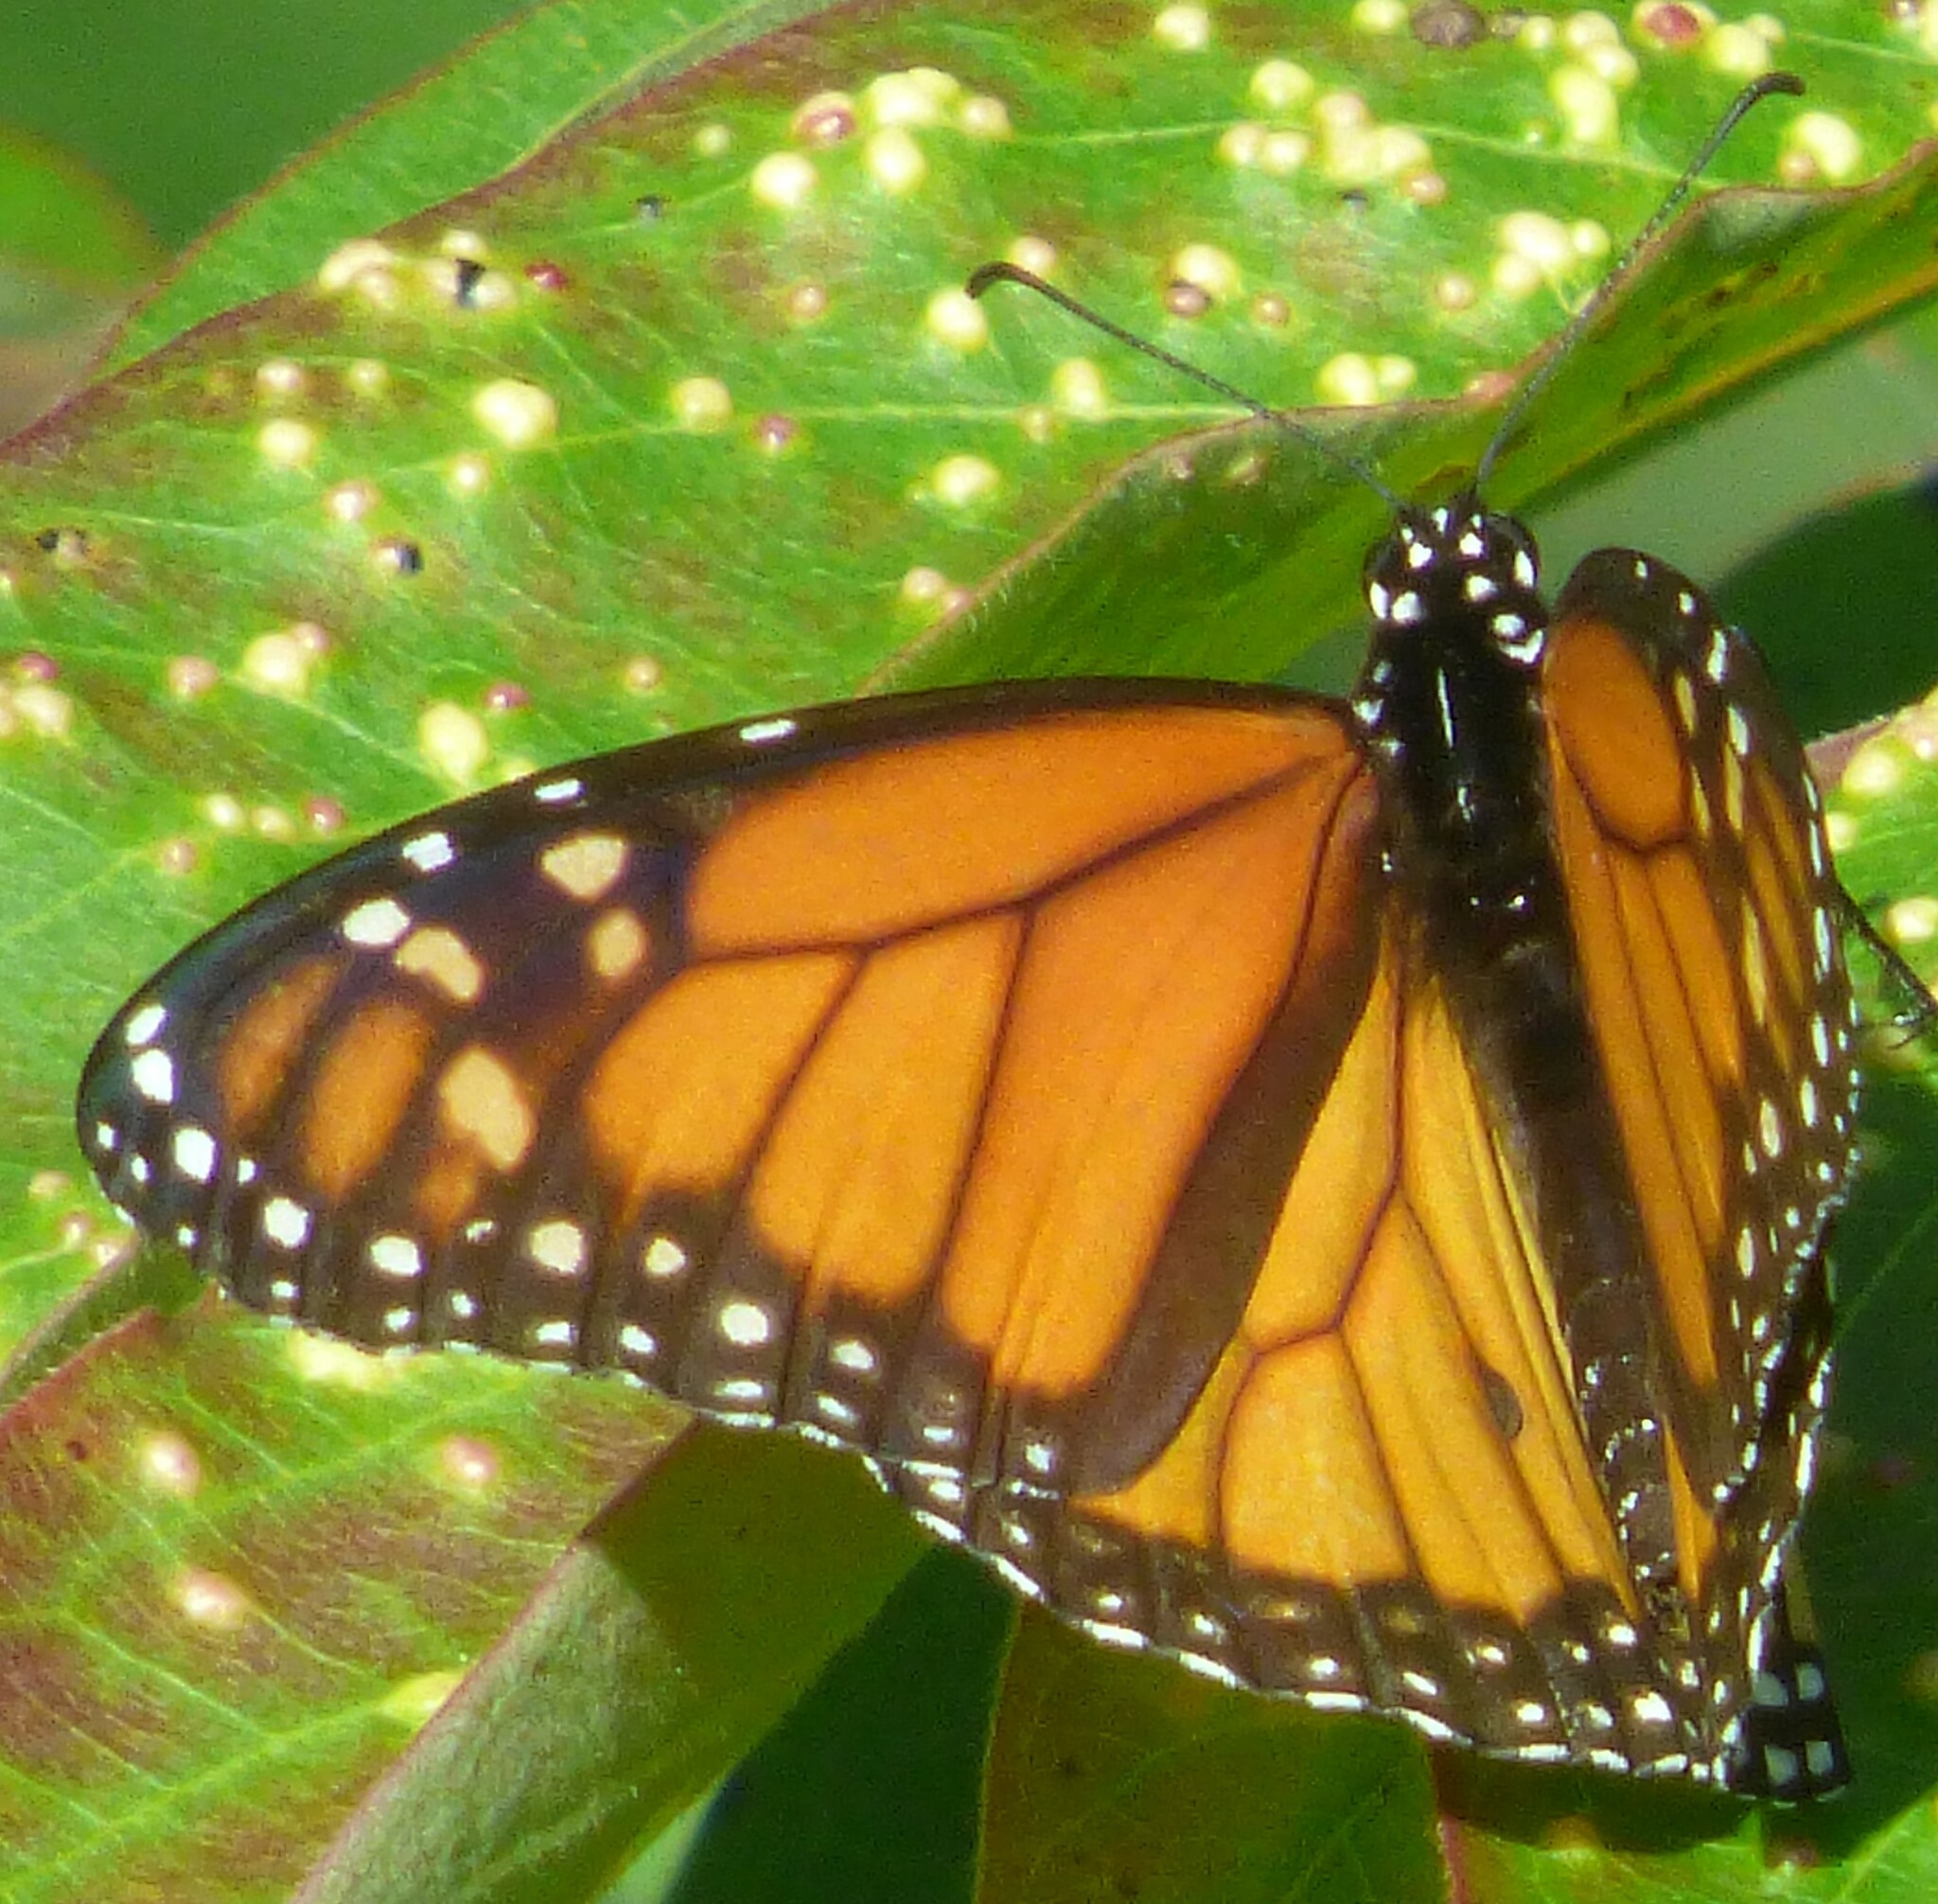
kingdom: Animalia
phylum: Arthropoda
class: Insecta
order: Lepidoptera
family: Nymphalidae
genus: Danaus
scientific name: Danaus plexippus
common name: Monarch
